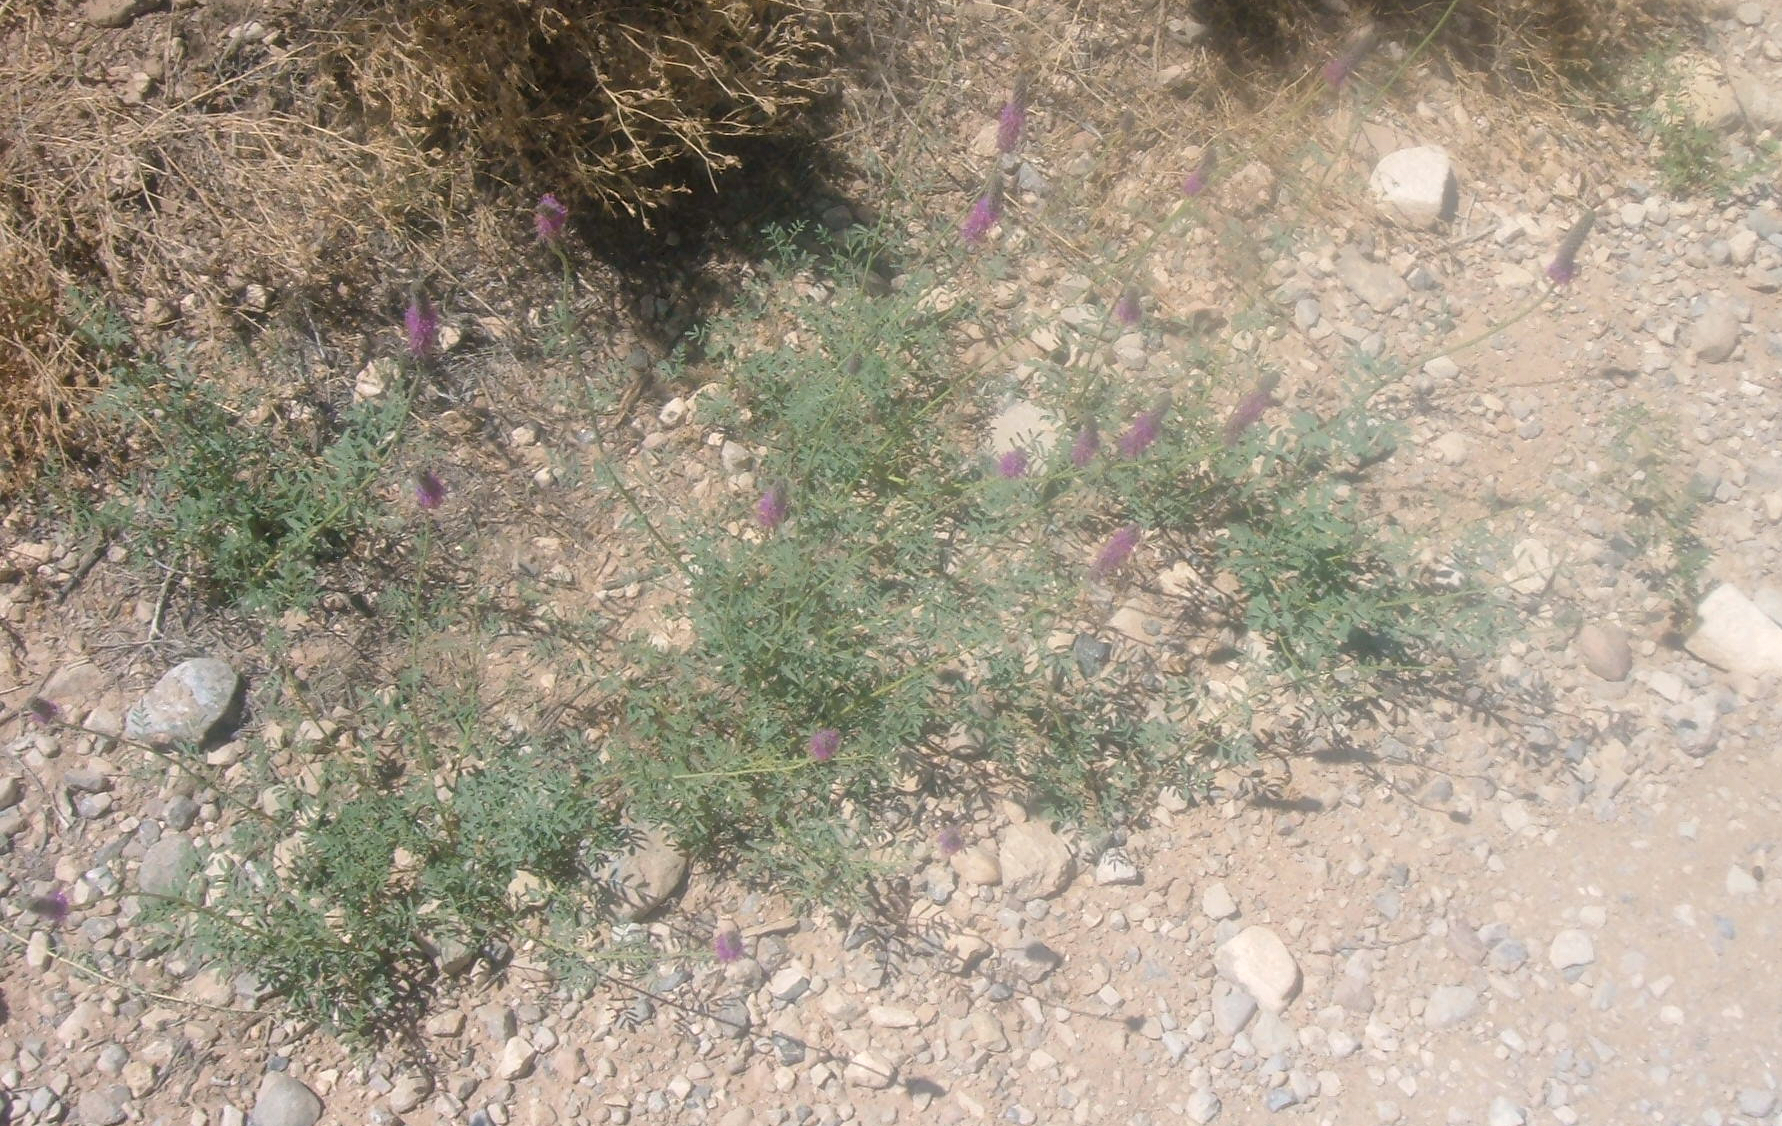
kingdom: Plantae
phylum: Tracheophyta
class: Magnoliopsida
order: Fabales
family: Fabaceae
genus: Dalea
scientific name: Dalea searlsiae
